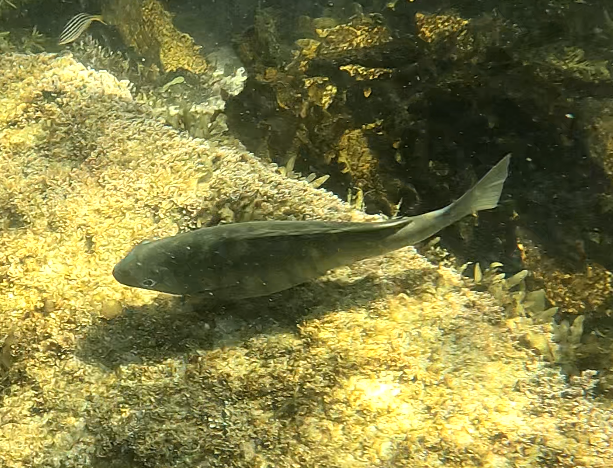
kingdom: Animalia
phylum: Chordata
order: Perciformes
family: Kyphosidae
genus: Girella
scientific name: Girella tricuspidata
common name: Parore
